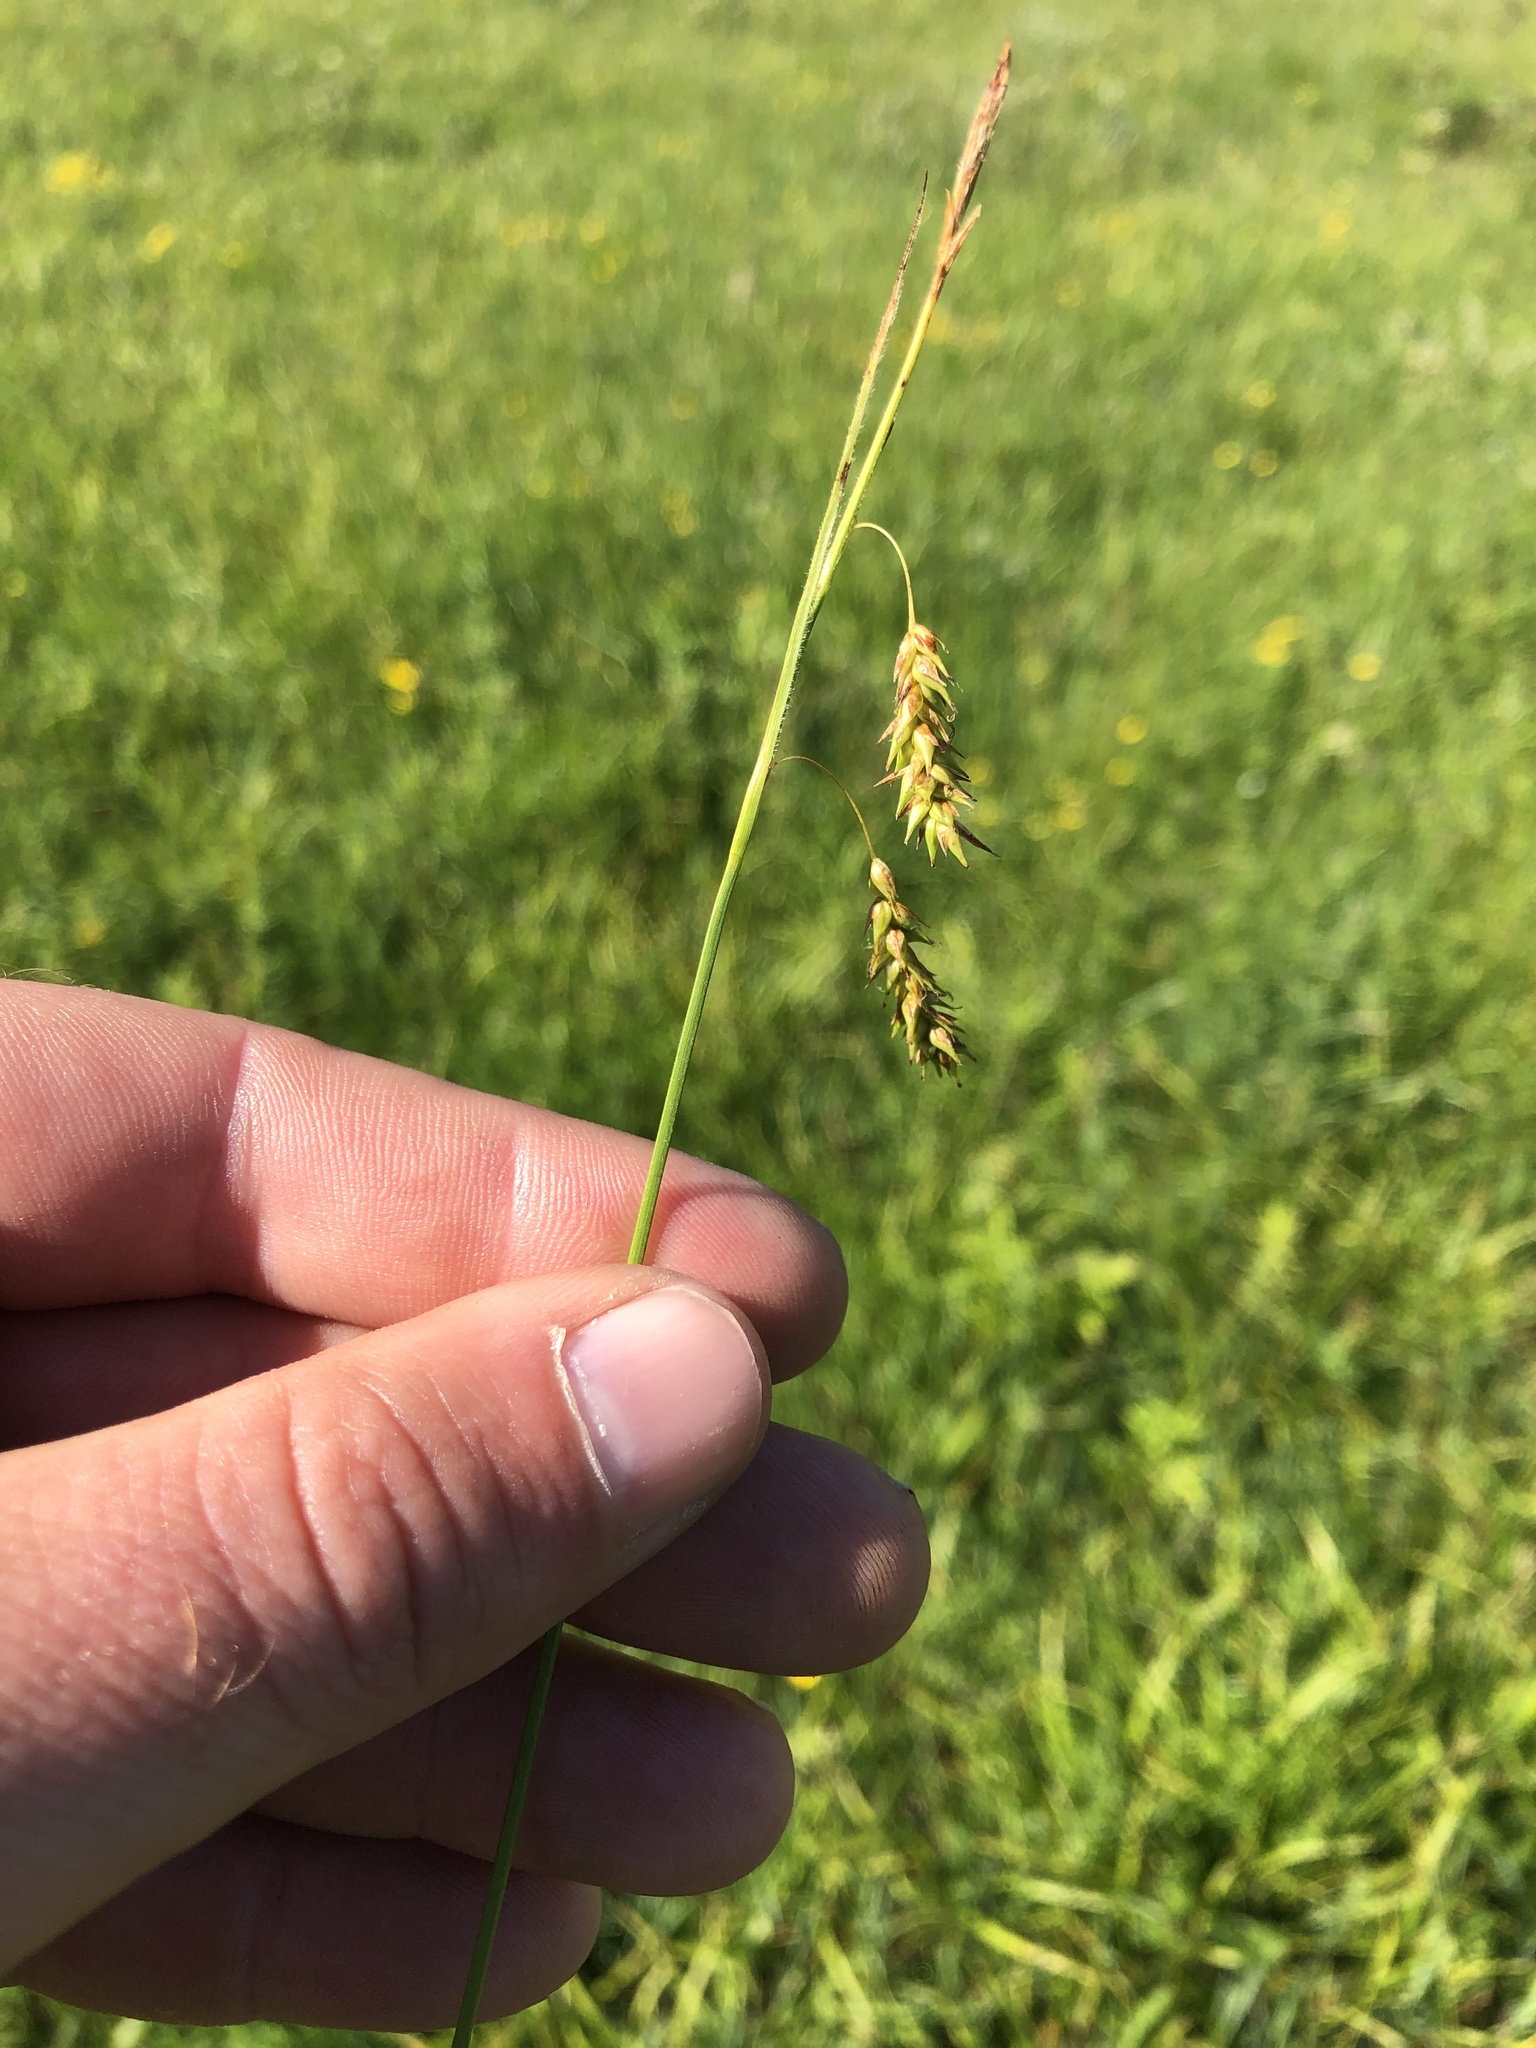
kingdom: Plantae
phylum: Tracheophyta
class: Liliopsida
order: Poales
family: Cyperaceae
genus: Carex
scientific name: Carex castanea
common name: Chestnut sedge
